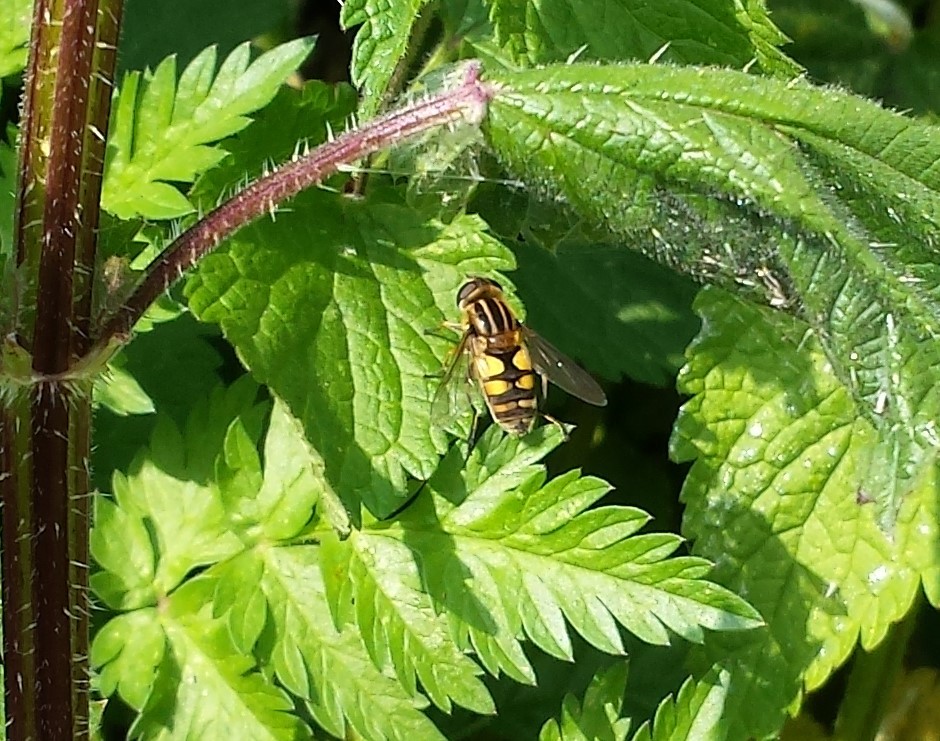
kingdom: Animalia
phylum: Arthropoda
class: Insecta
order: Diptera
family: Syrphidae
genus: Helophilus
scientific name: Helophilus hybridus
